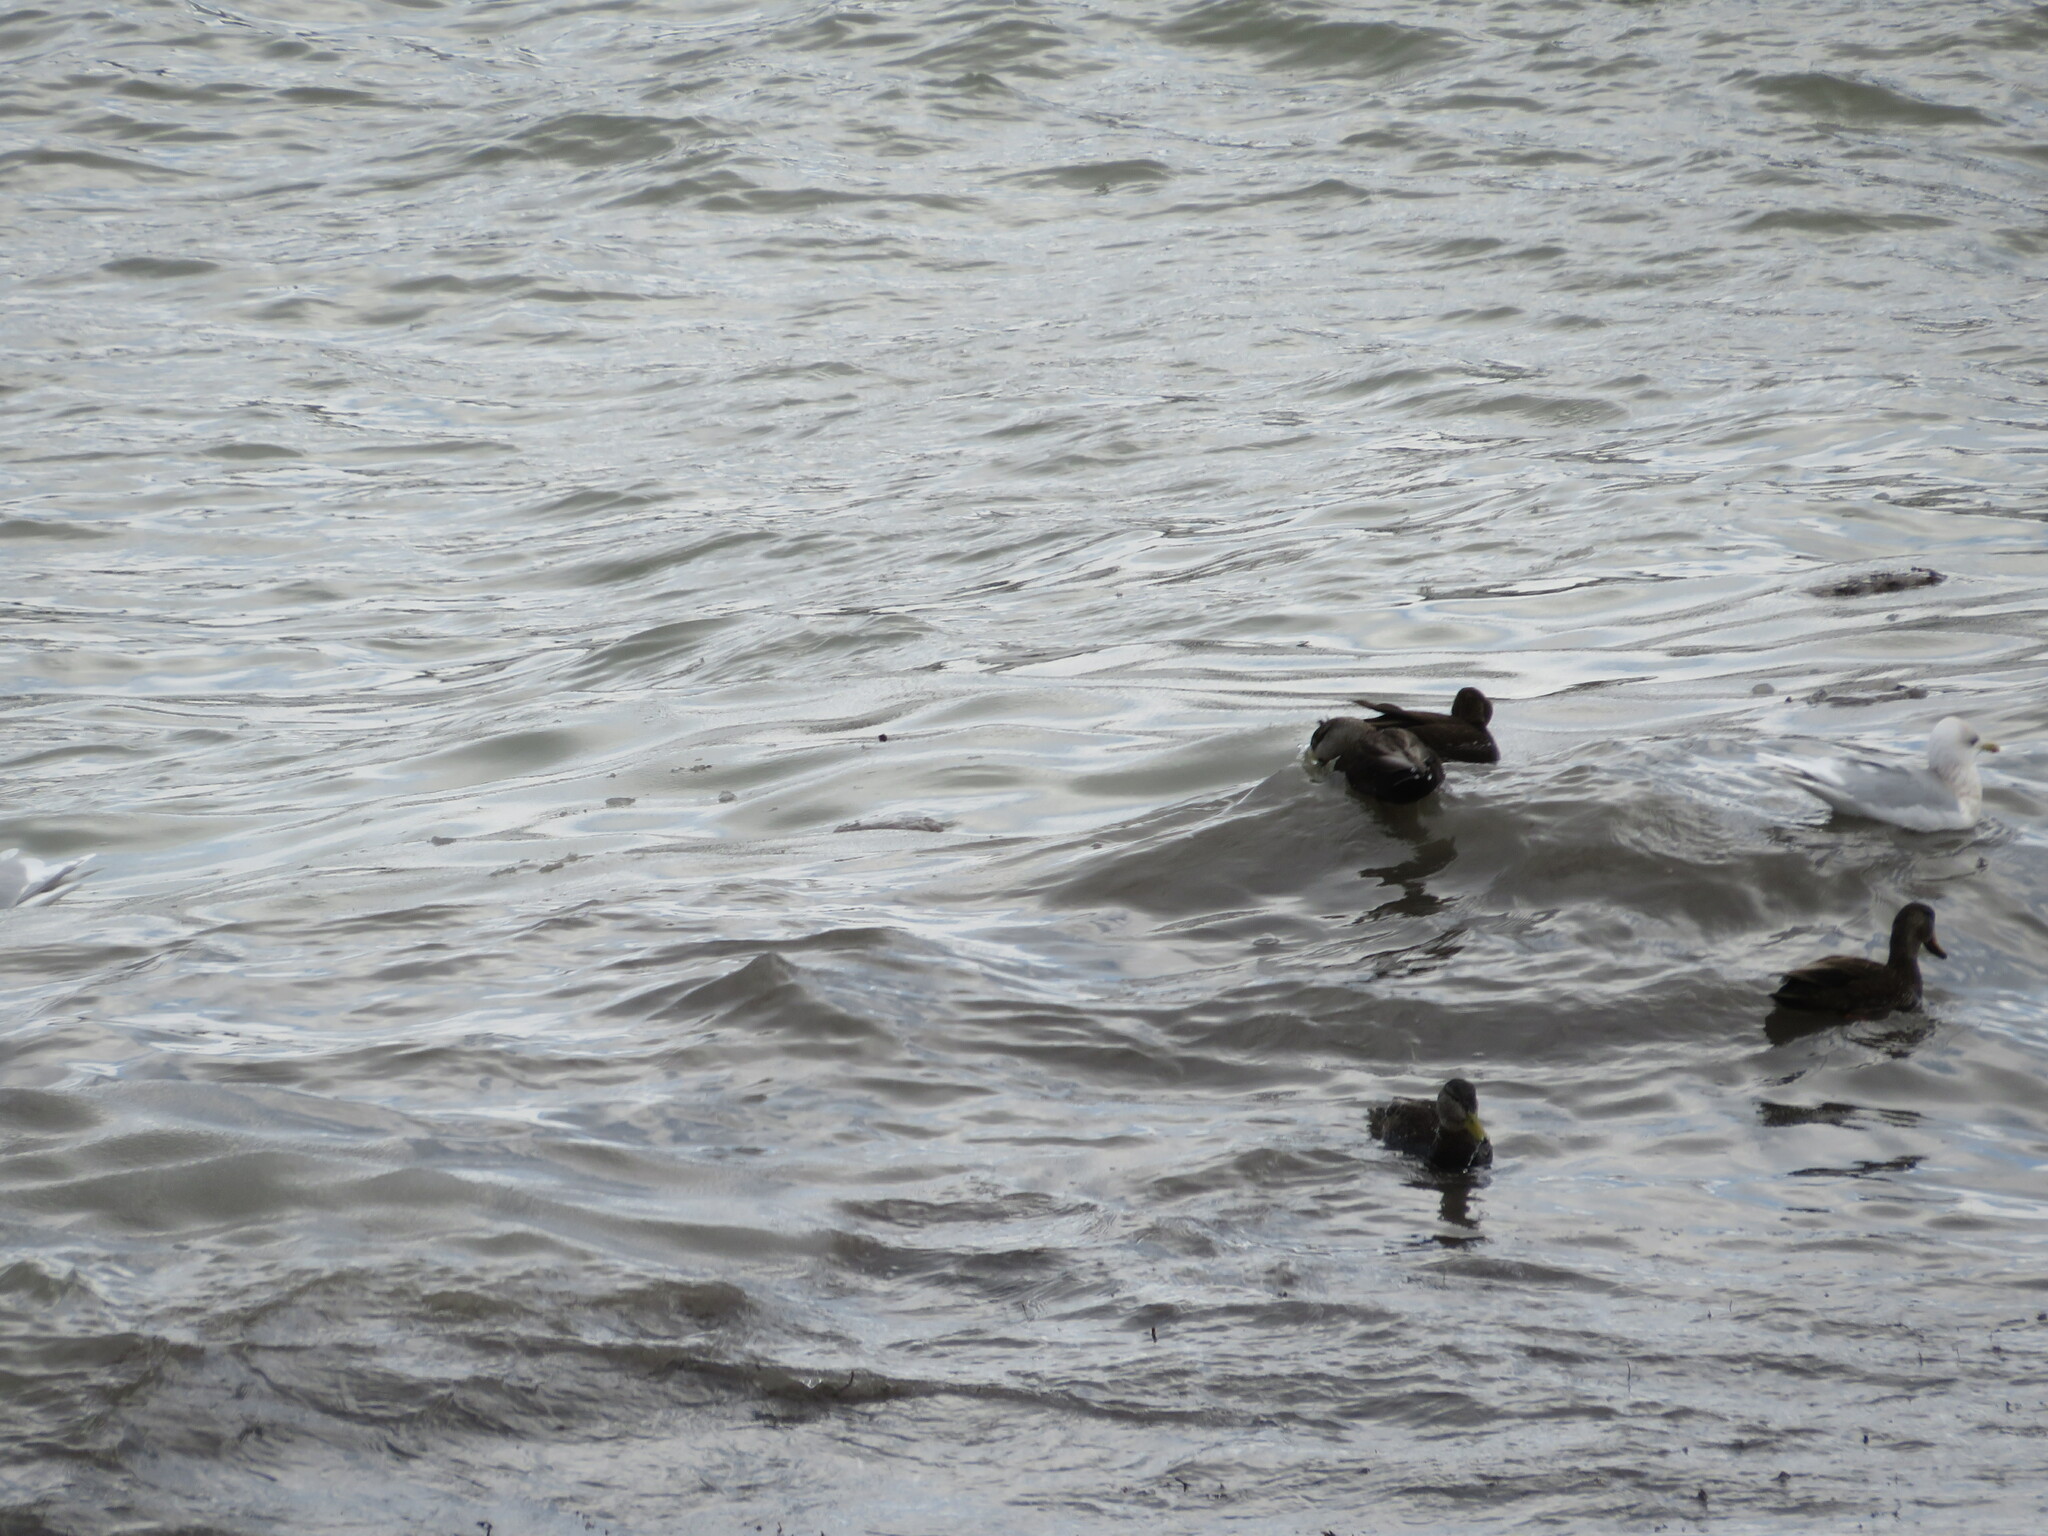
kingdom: Animalia
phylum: Chordata
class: Aves
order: Anseriformes
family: Anatidae
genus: Anas
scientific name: Anas rubripes
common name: American black duck
